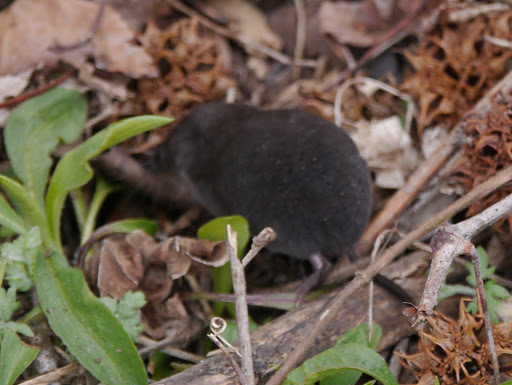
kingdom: Animalia
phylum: Chordata
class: Mammalia
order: Soricomorpha
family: Soricidae
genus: Blarina
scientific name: Blarina brevicauda
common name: Northern short-tailed shrew
